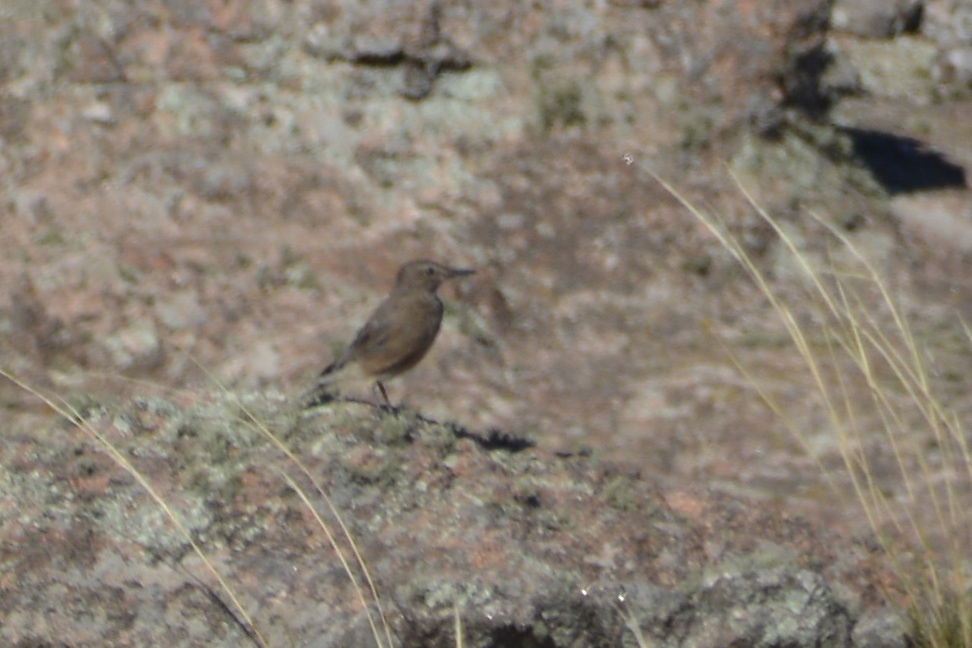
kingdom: Animalia
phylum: Chordata
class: Aves
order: Passeriformes
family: Tyrannidae
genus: Agriornis
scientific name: Agriornis montanus
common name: Black-billed shrike-tyrant
